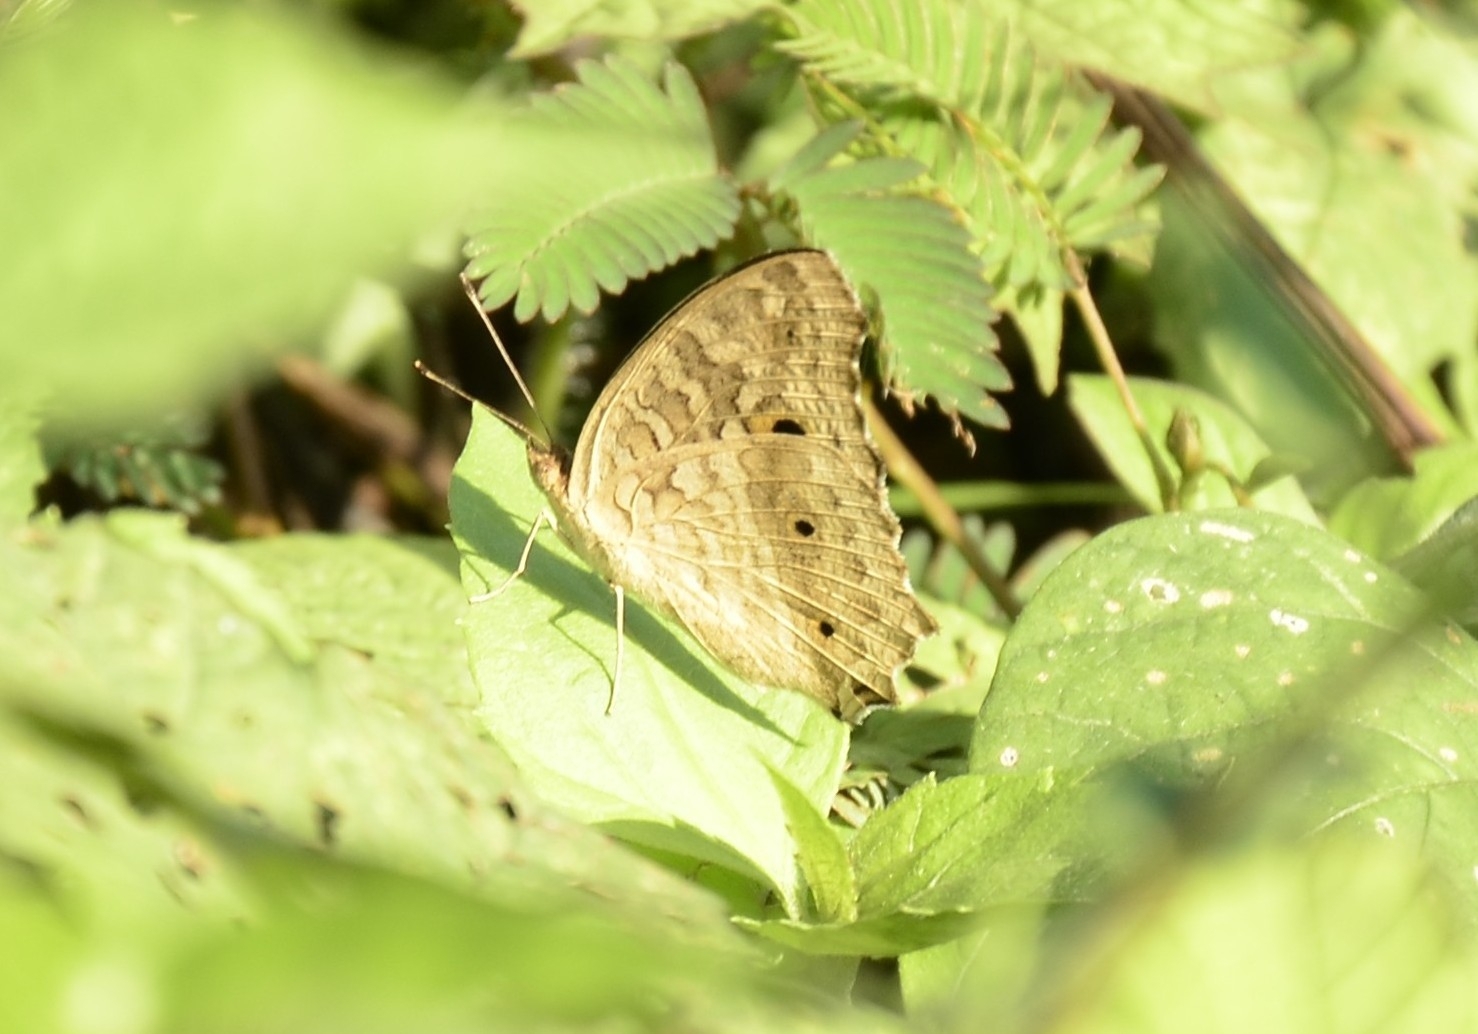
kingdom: Animalia
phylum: Arthropoda
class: Insecta
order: Lepidoptera
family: Nymphalidae
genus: Junonia
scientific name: Junonia lemonias
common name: Lemon pansy
